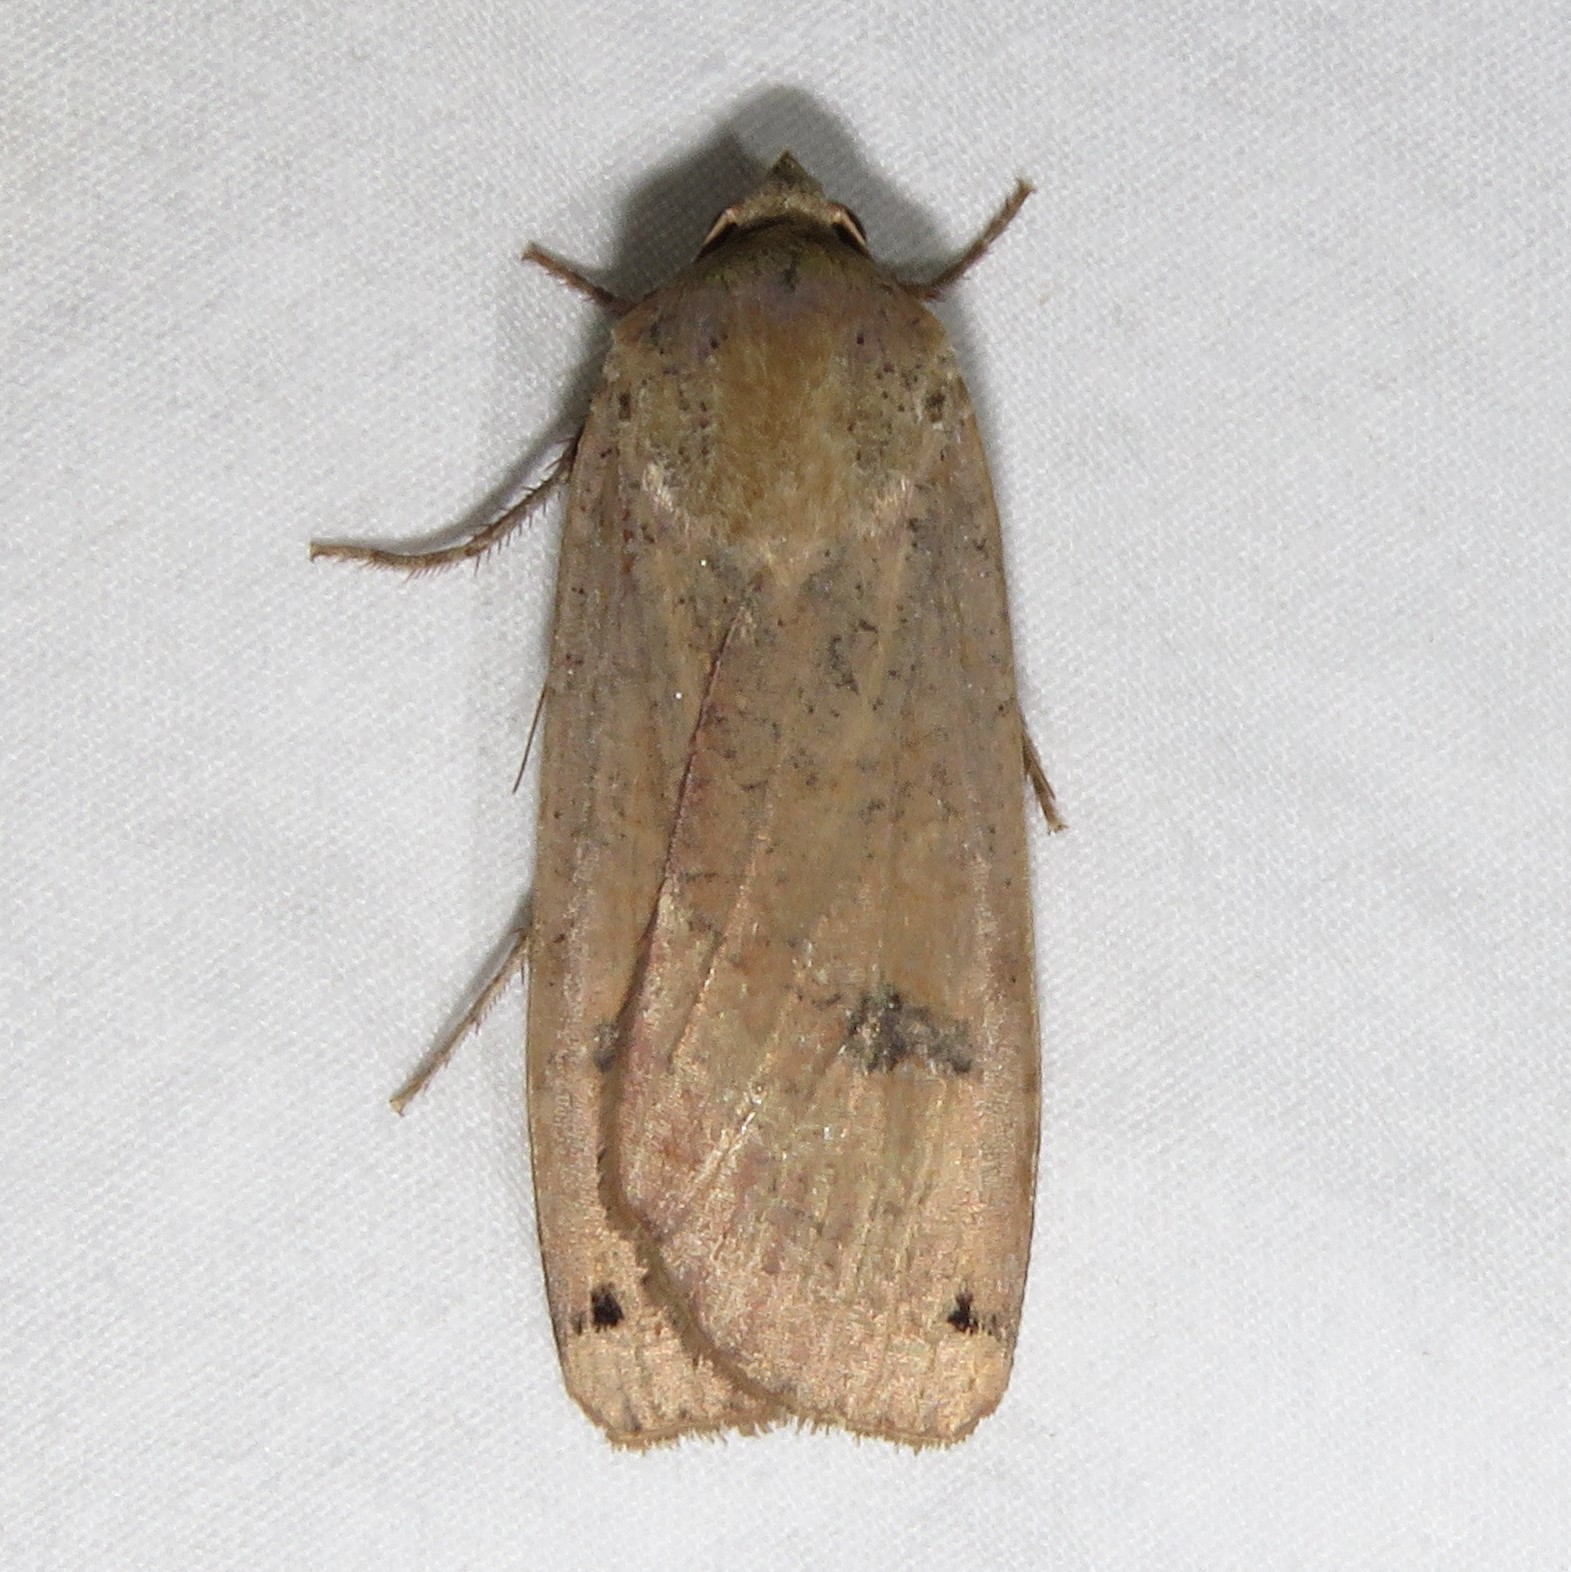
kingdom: Animalia
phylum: Arthropoda
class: Insecta
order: Lepidoptera
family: Noctuidae
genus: Noctua
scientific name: Noctua pronuba
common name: Large yellow underwing
